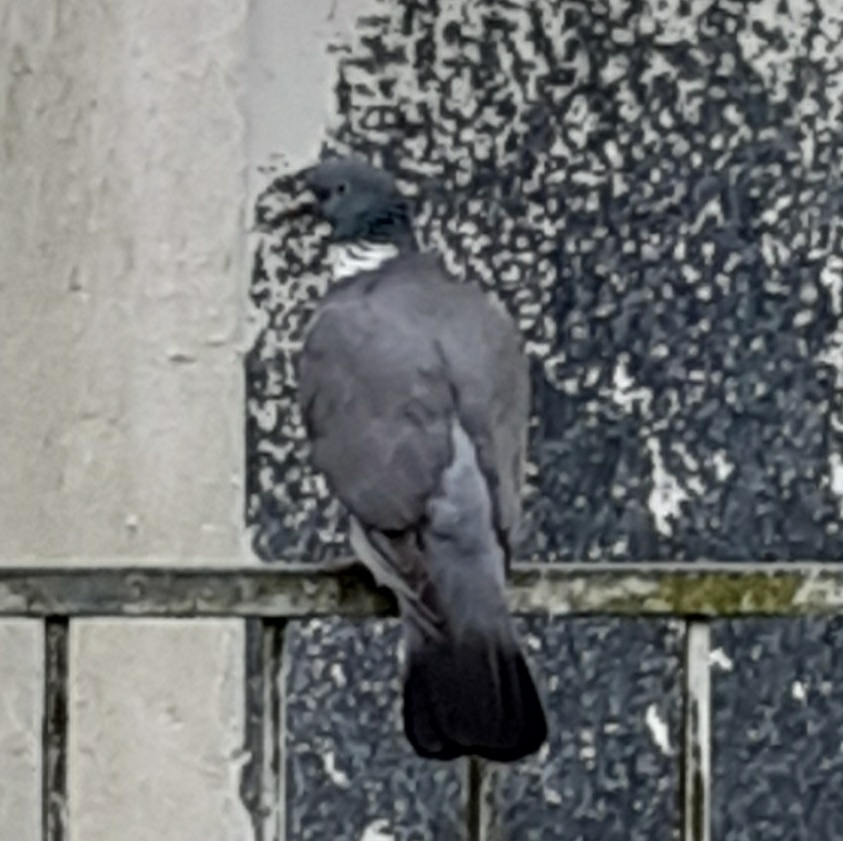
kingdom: Animalia
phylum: Chordata
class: Aves
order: Columbiformes
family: Columbidae
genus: Columba
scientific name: Columba palumbus
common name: Common wood pigeon
